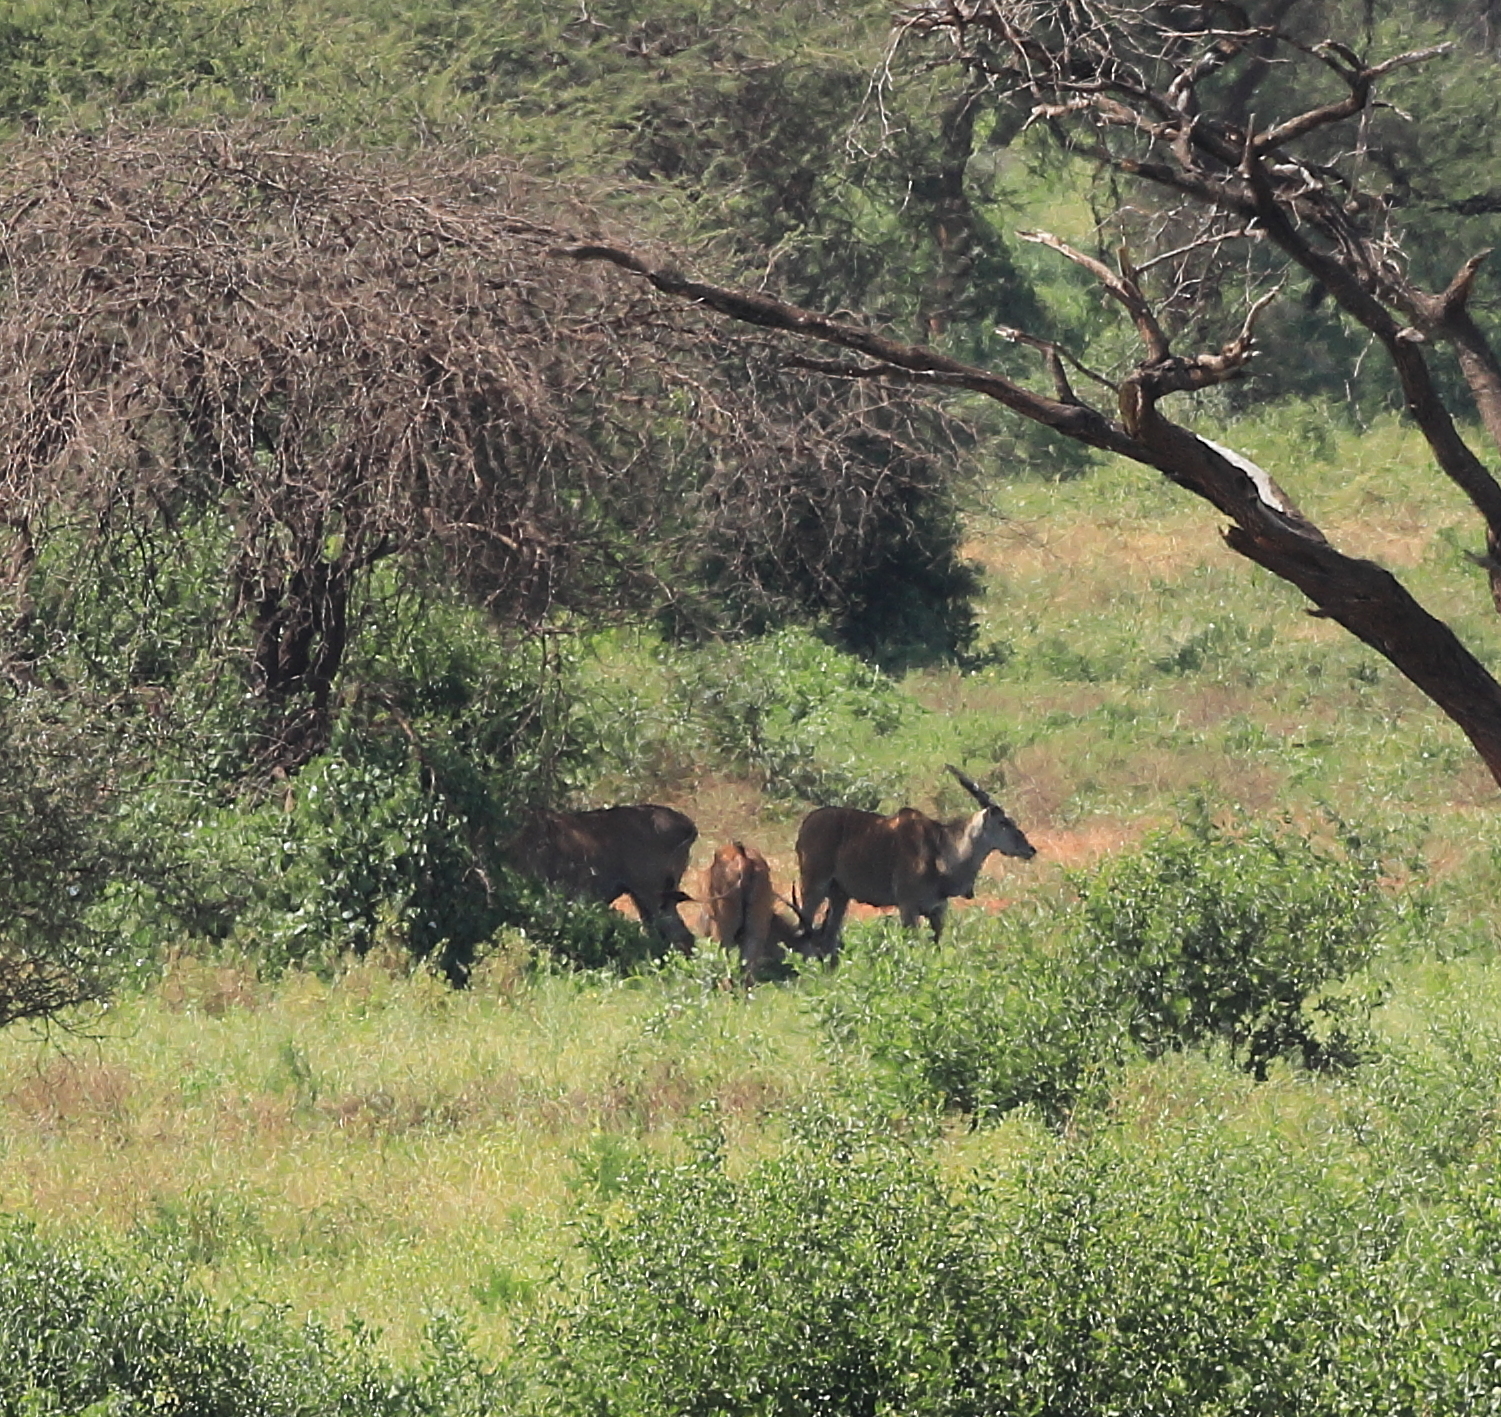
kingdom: Animalia
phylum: Chordata
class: Mammalia
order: Artiodactyla
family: Bovidae
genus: Taurotragus
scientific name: Taurotragus oryx
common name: Common eland
